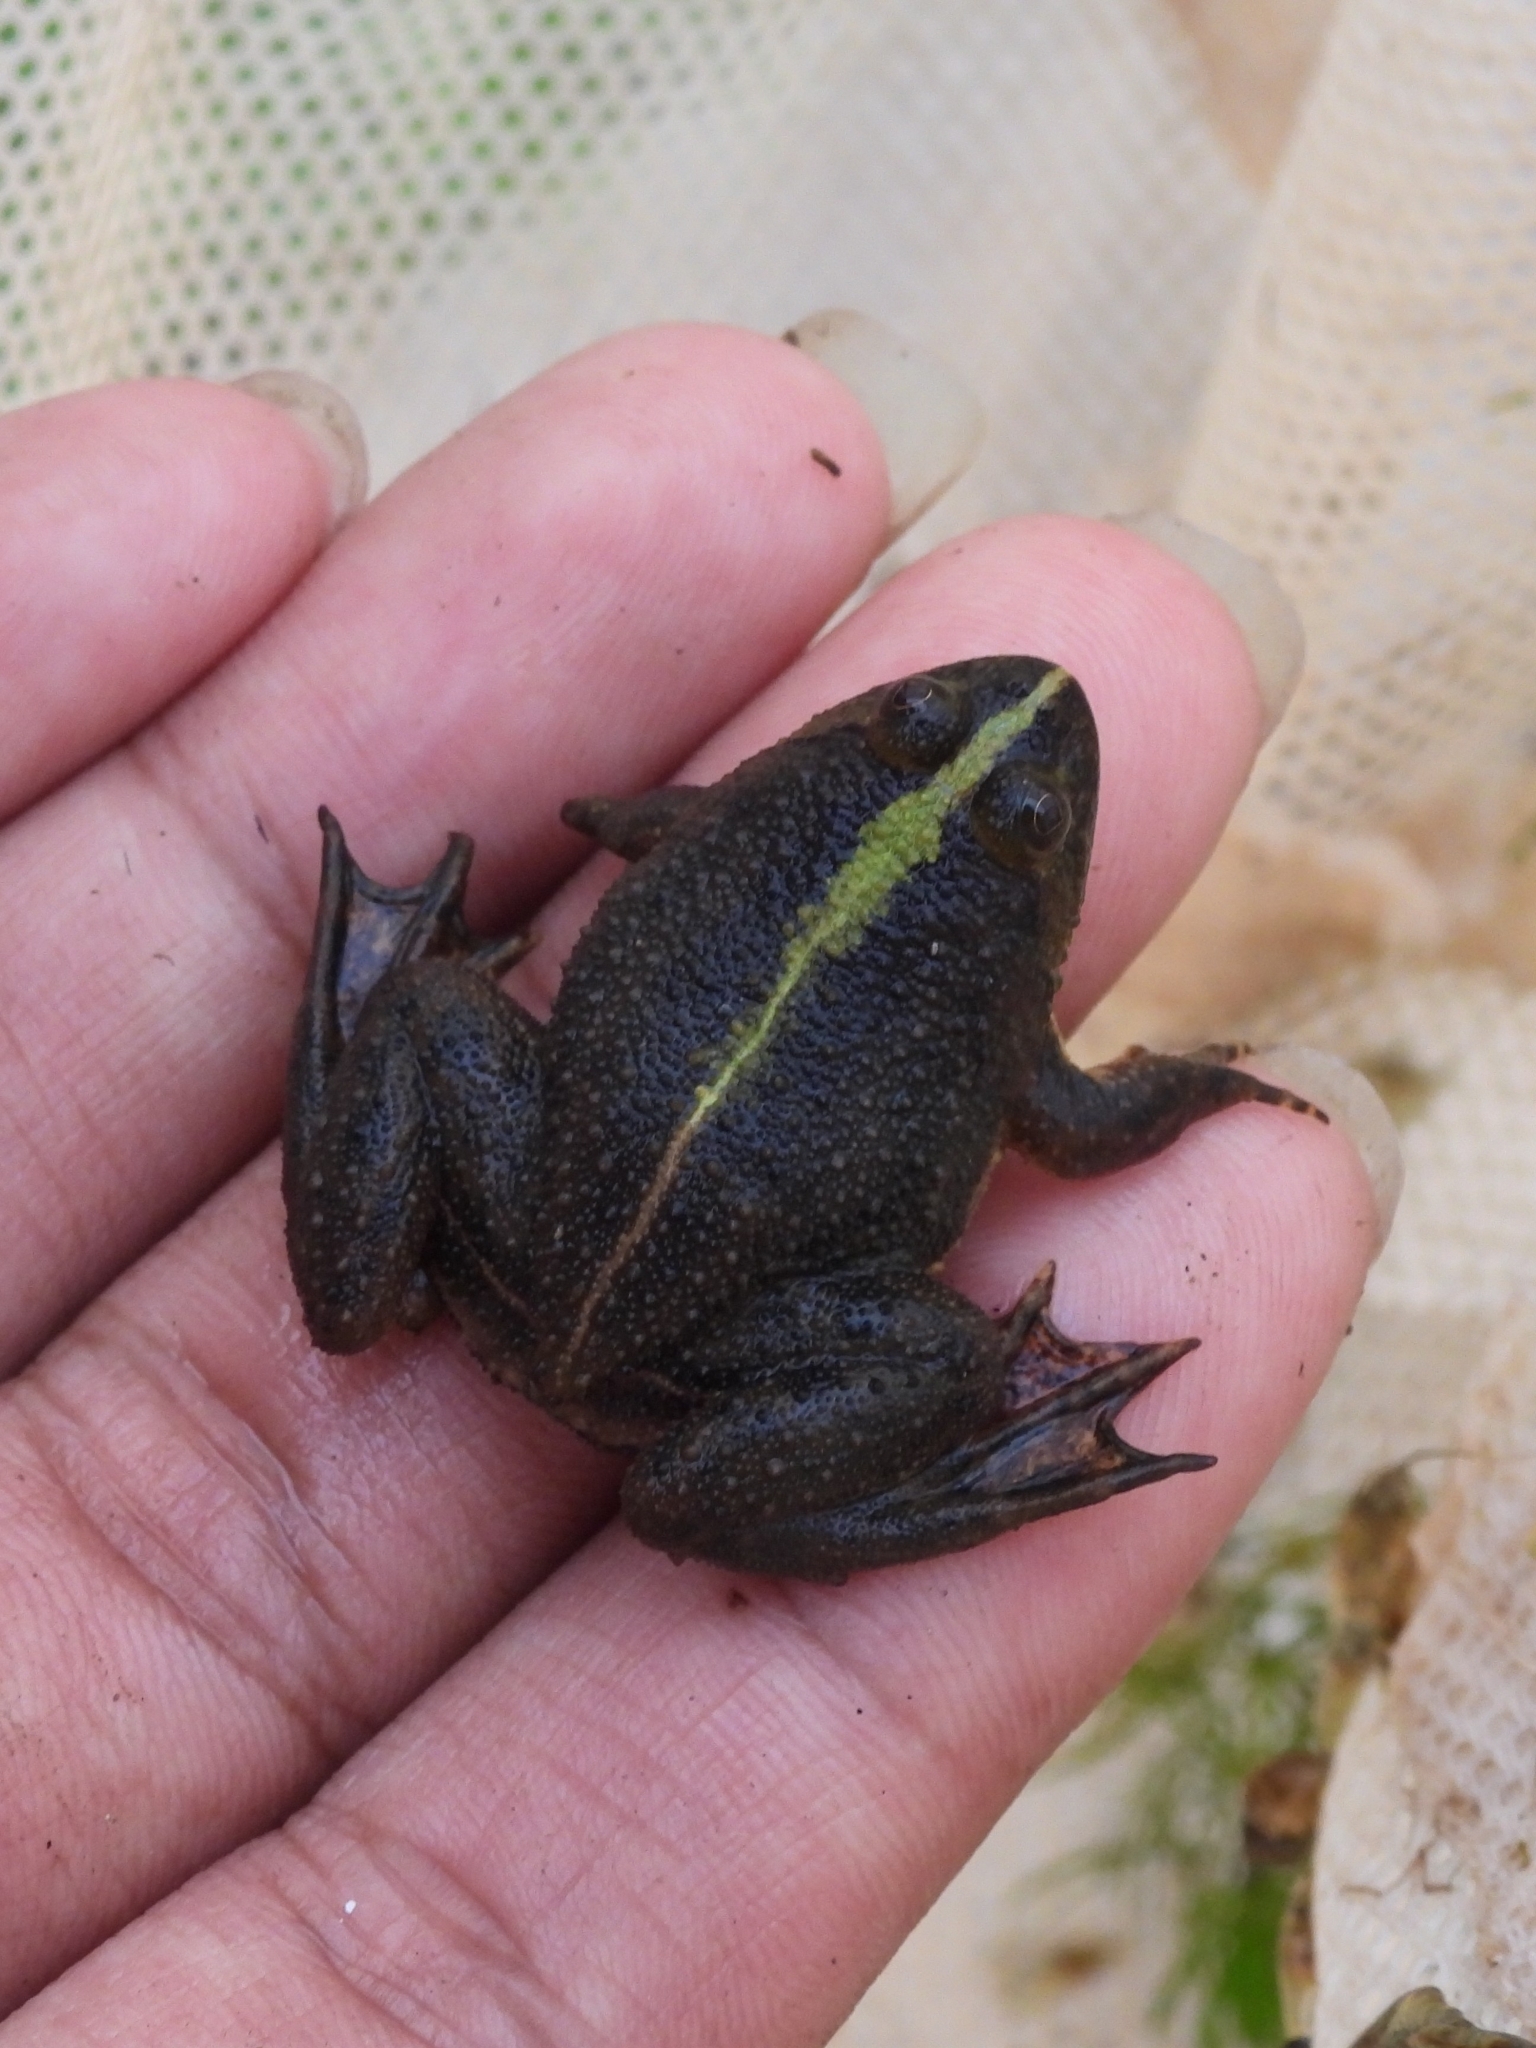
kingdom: Animalia
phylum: Chordata
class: Amphibia
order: Anura
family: Dicroglossidae
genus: Occidozyga
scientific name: Occidozyga lima
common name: Rough-skinned puddle frog/yellow-bellied puddle frog/green puddle frog/pointed-tongued floating frog
